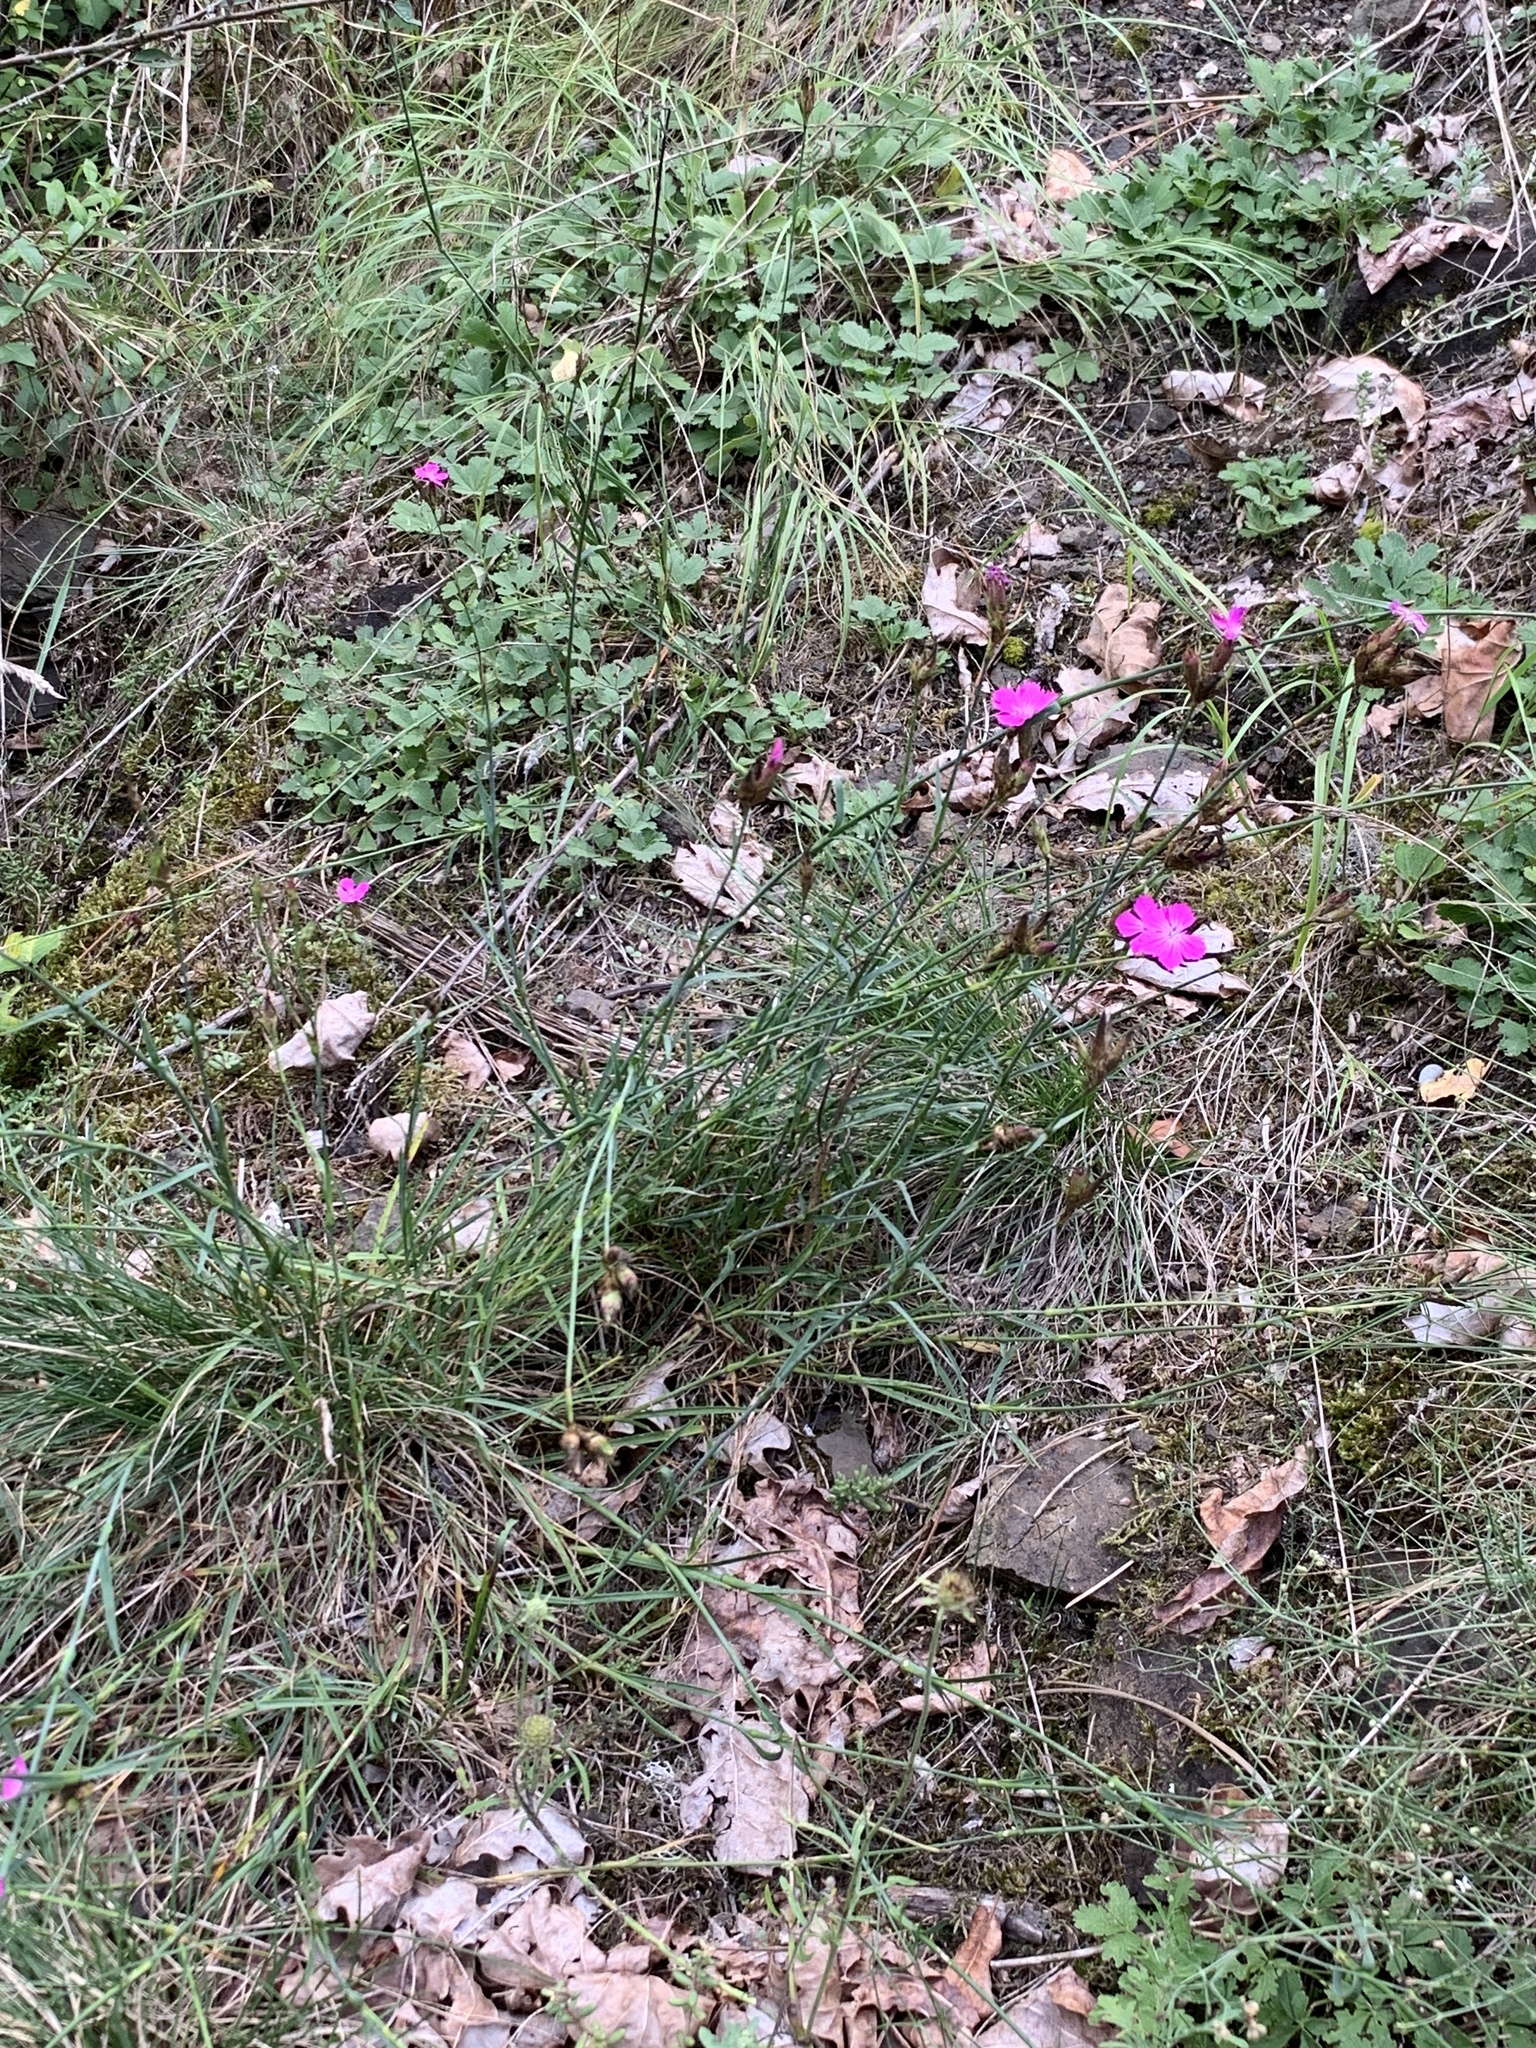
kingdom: Plantae
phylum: Tracheophyta
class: Magnoliopsida
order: Caryophyllales
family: Caryophyllaceae
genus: Dianthus
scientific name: Dianthus carthusianorum
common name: Carthusian pink
